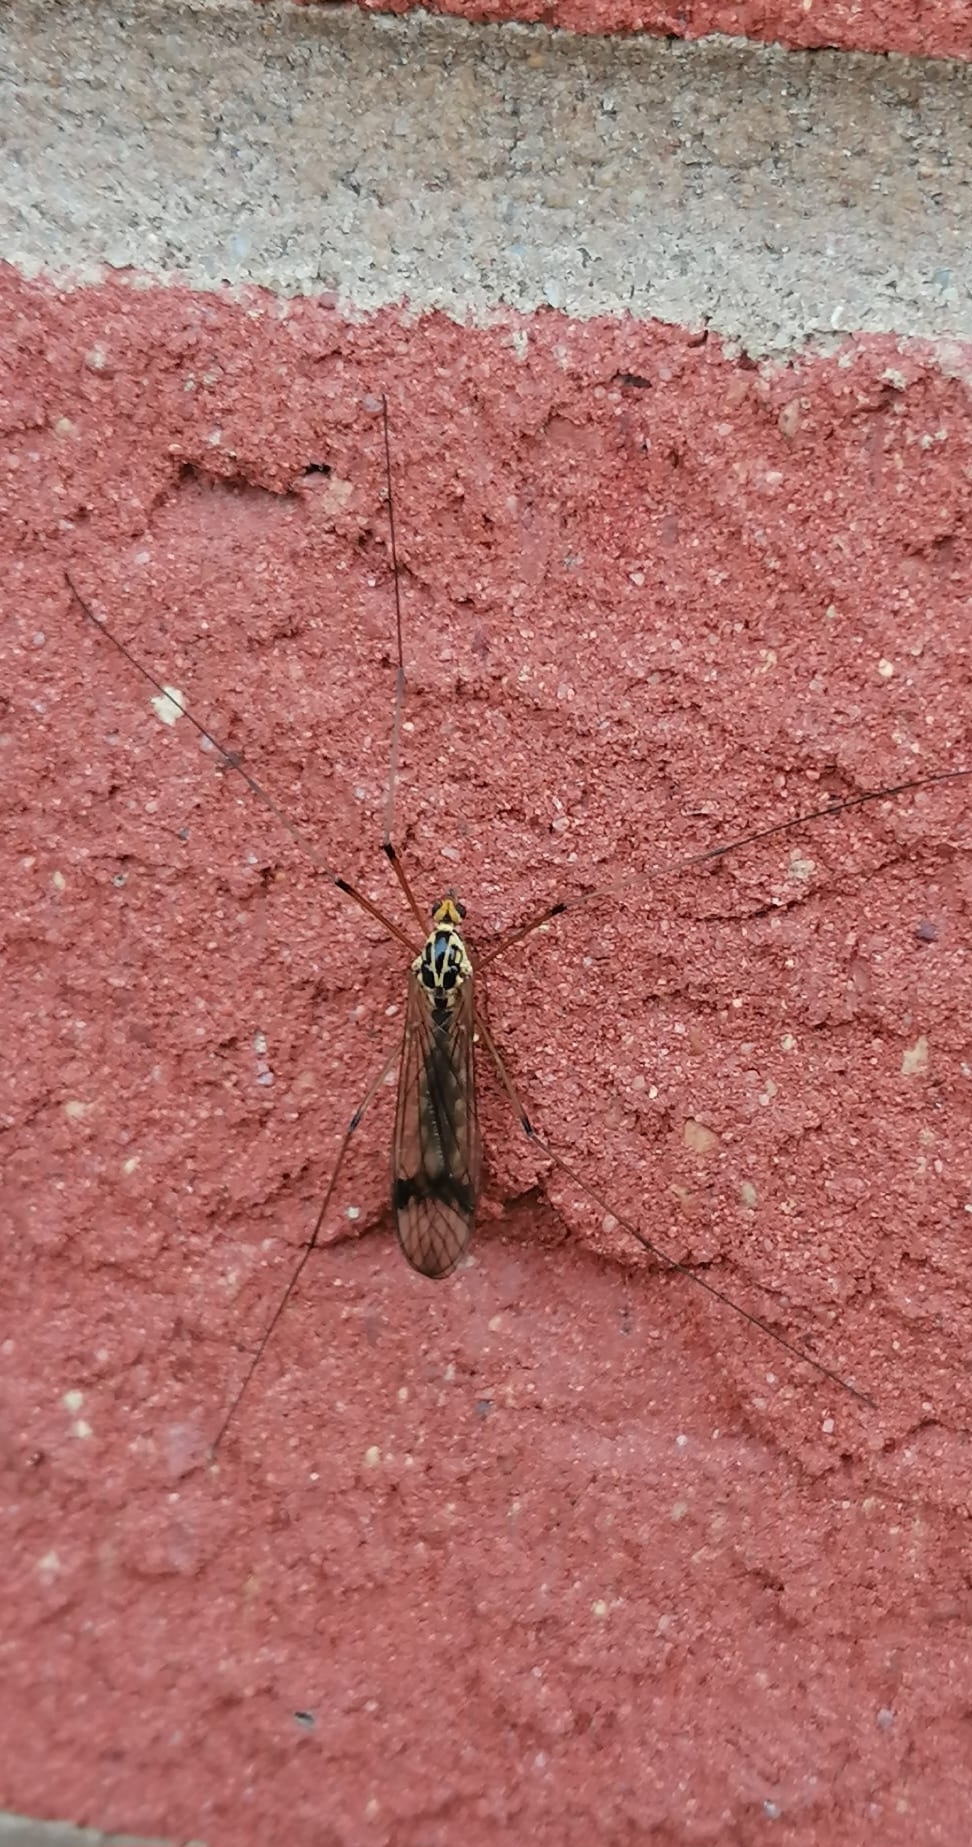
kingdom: Animalia
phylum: Arthropoda
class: Insecta
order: Diptera
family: Tipulidae
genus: Nephrotoma
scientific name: Nephrotoma quadrifaria
